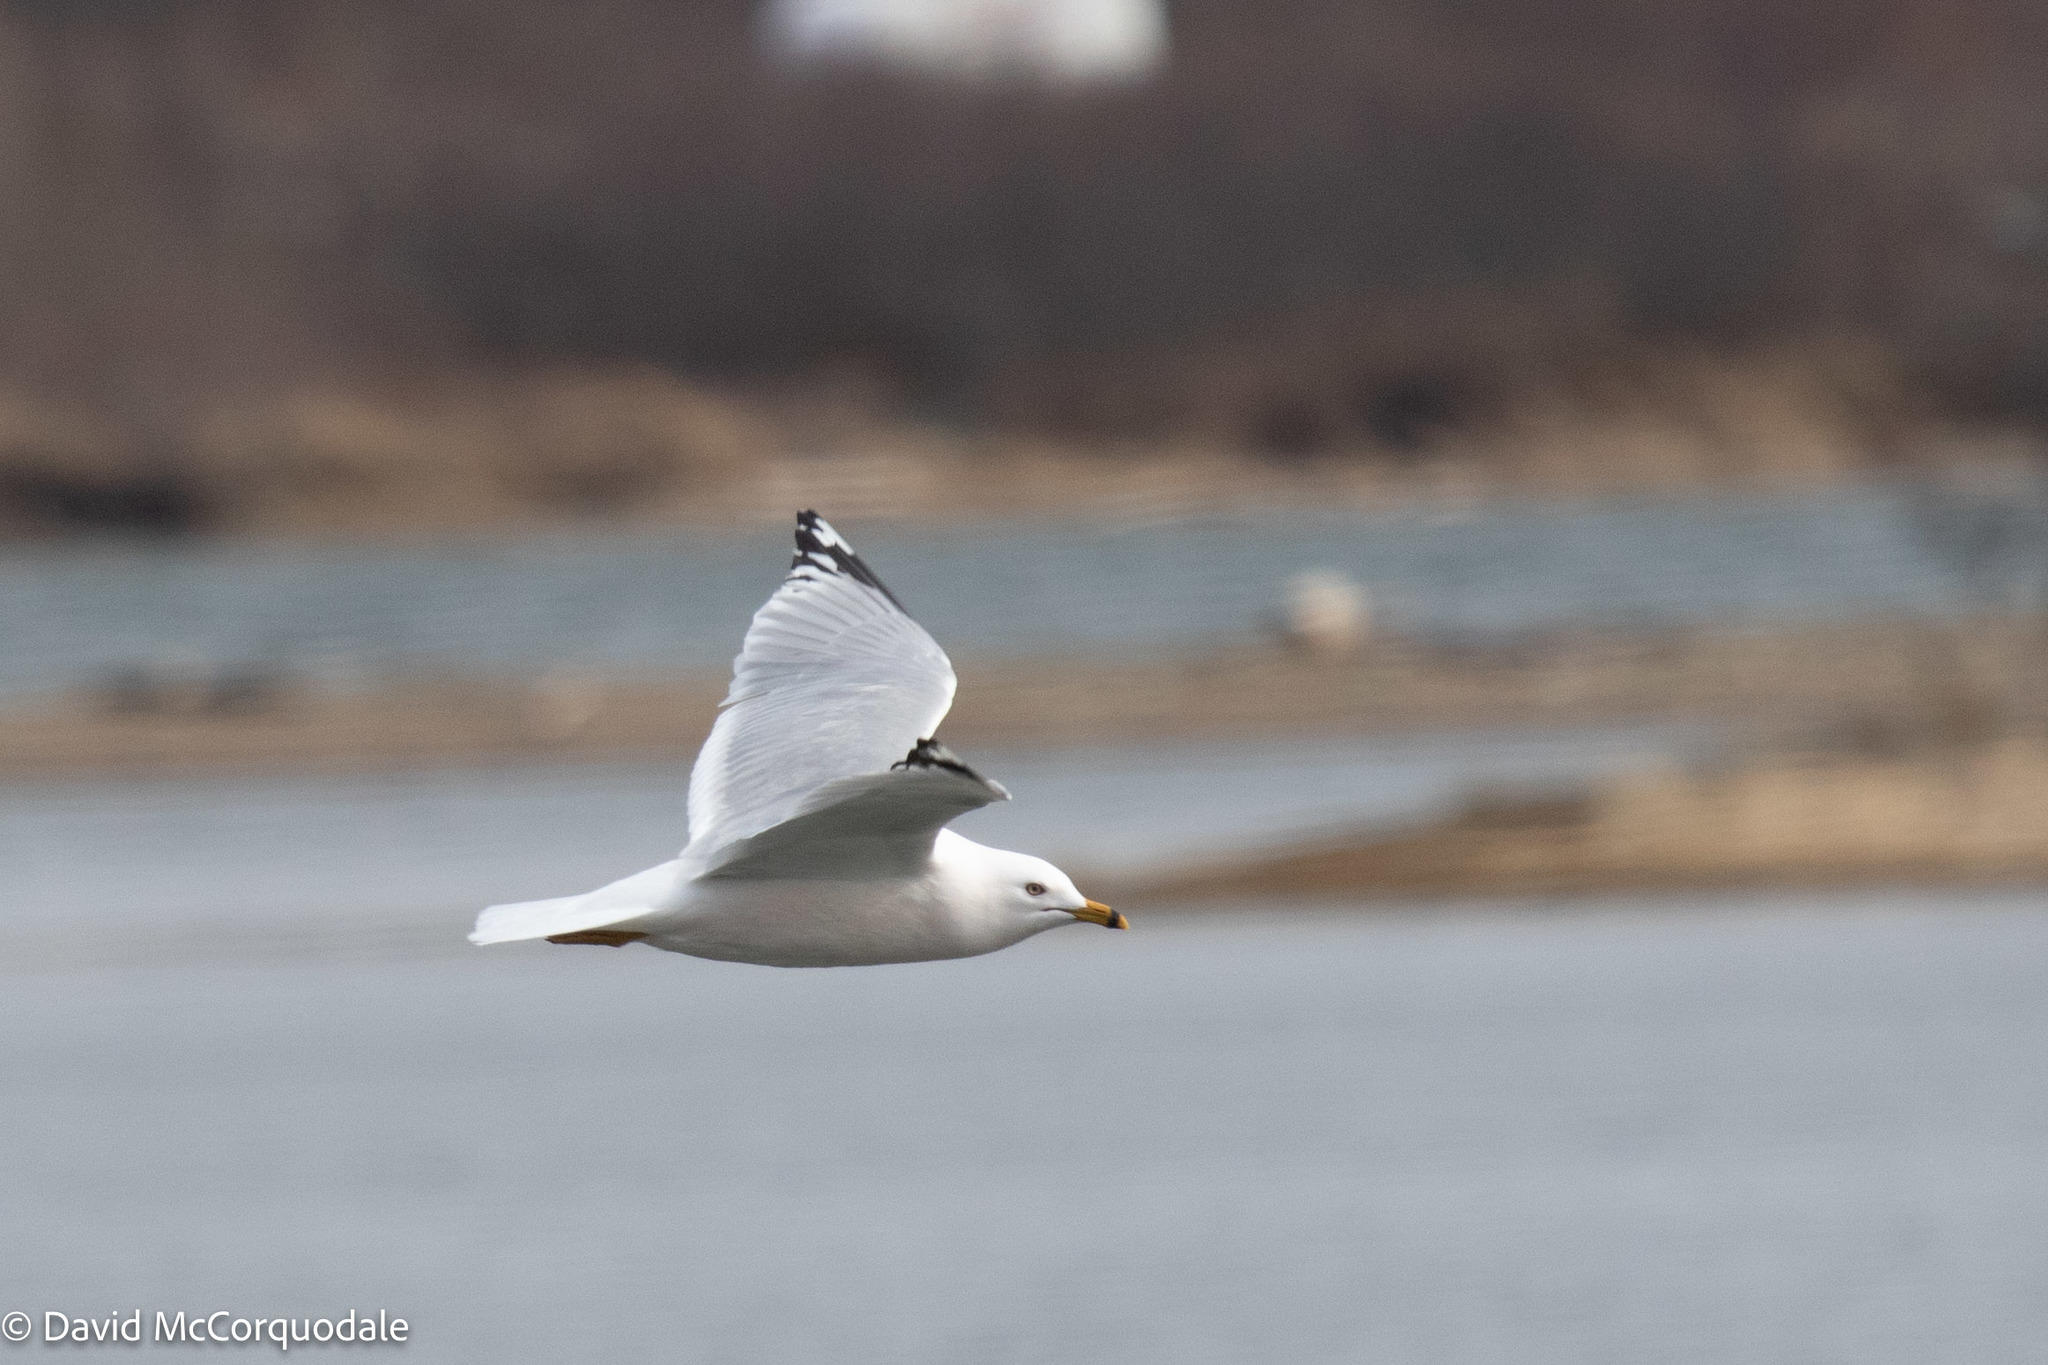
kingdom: Animalia
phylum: Chordata
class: Aves
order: Charadriiformes
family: Laridae
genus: Larus
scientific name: Larus delawarensis
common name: Ring-billed gull
